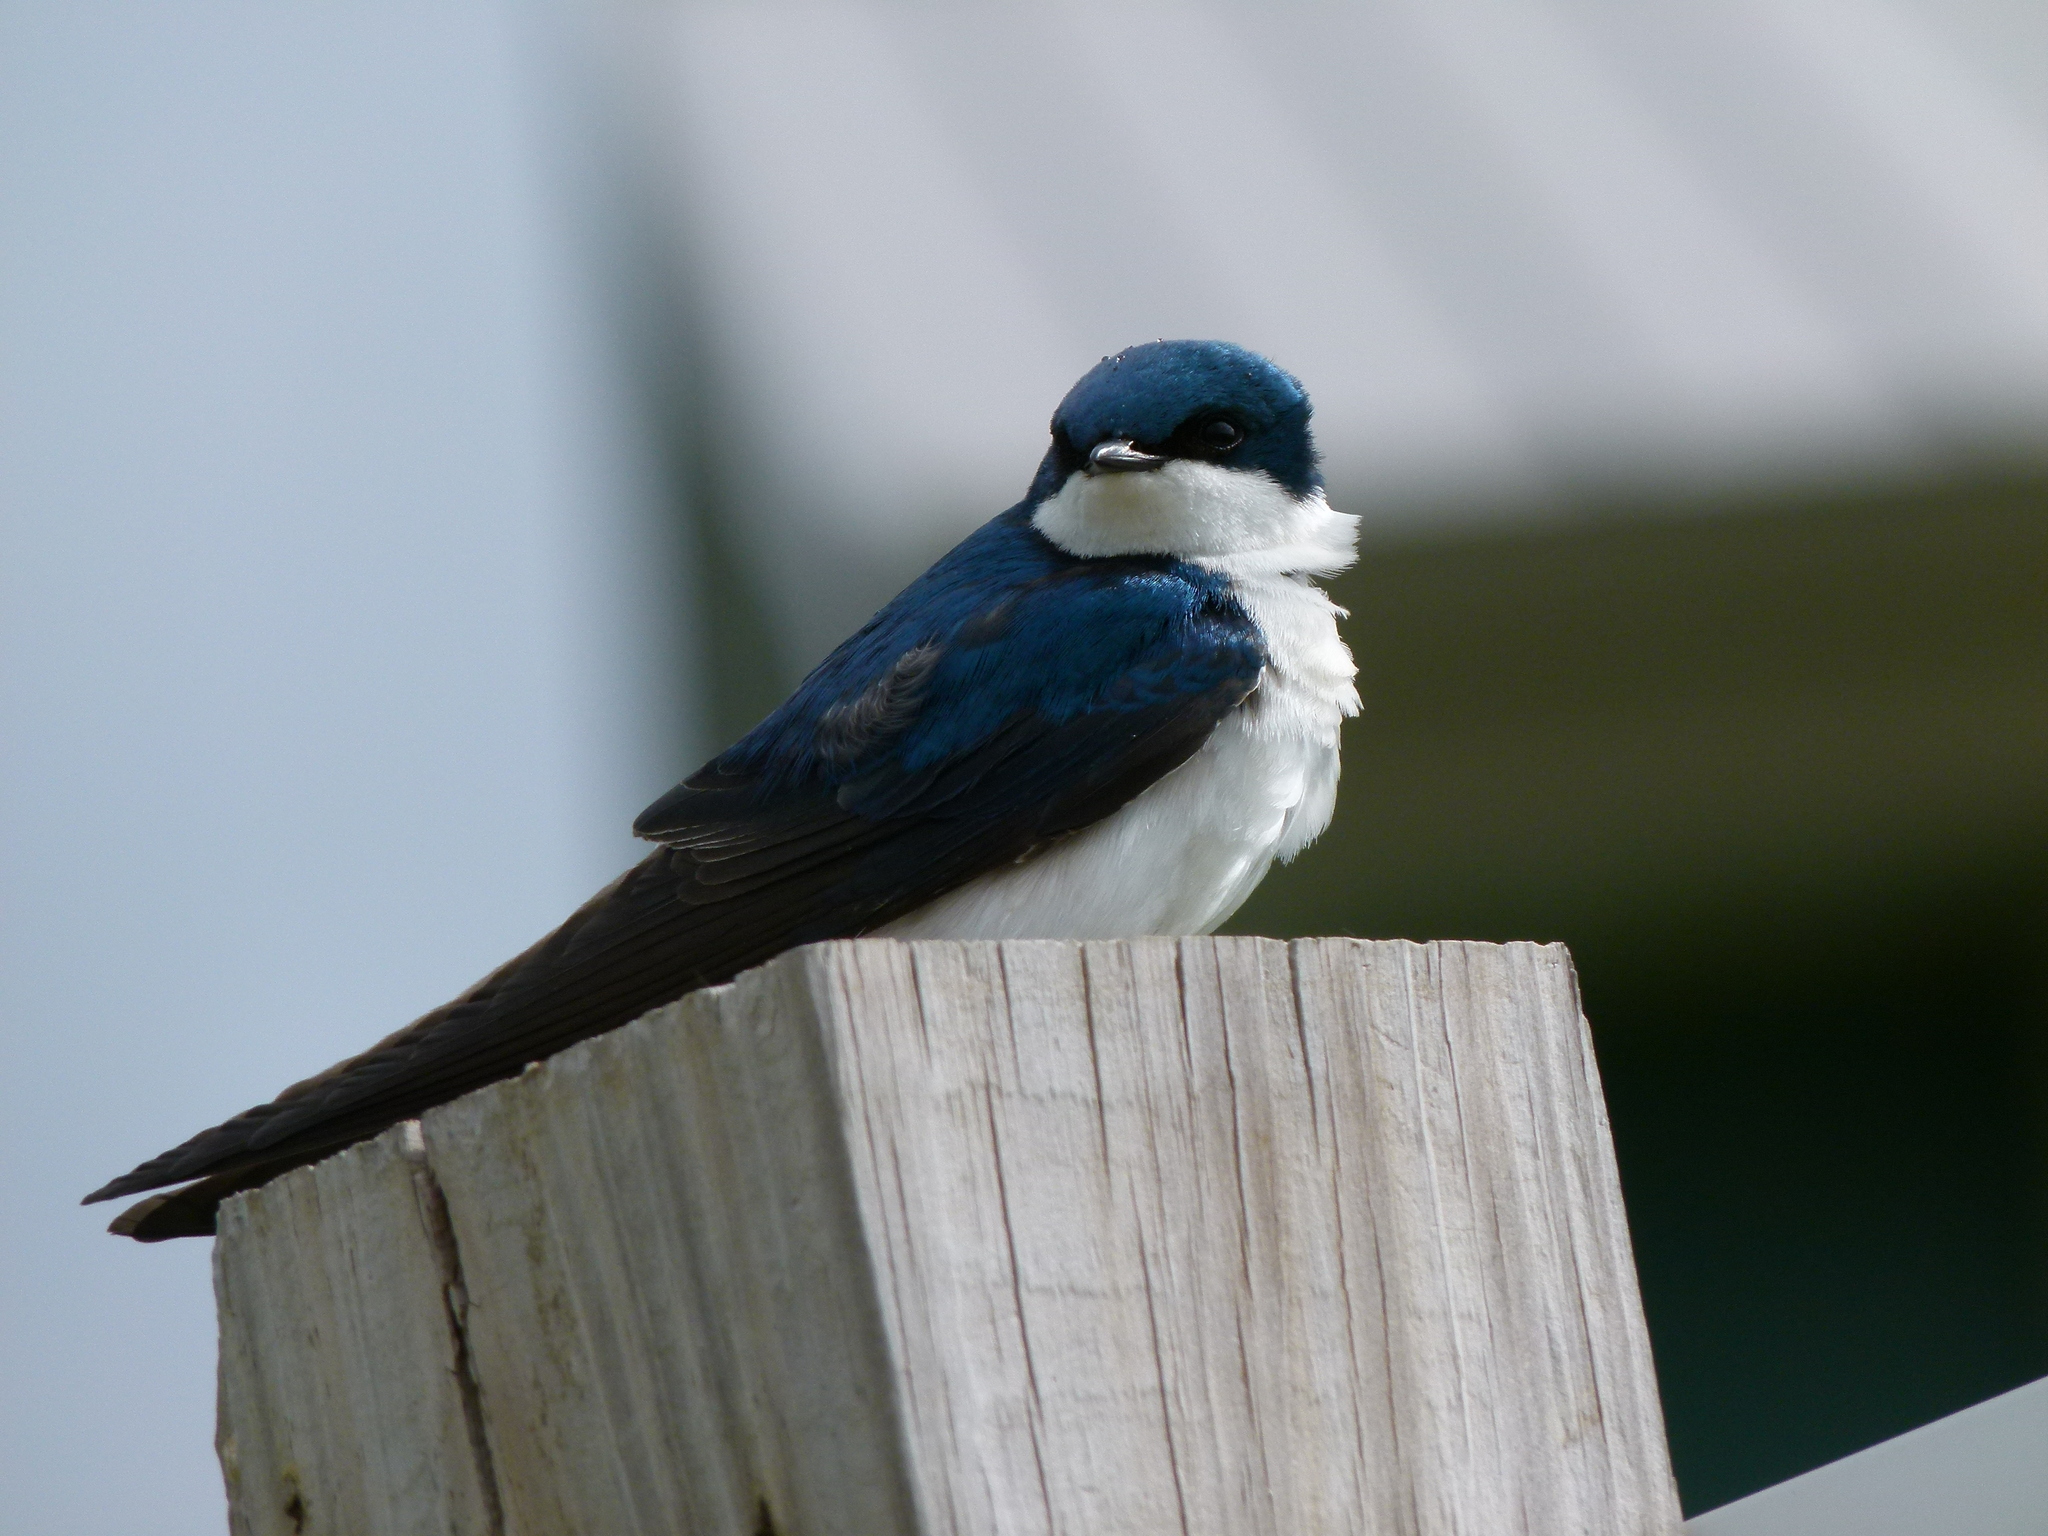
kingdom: Animalia
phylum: Chordata
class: Aves
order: Passeriformes
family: Hirundinidae
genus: Tachycineta
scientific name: Tachycineta bicolor
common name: Tree swallow
